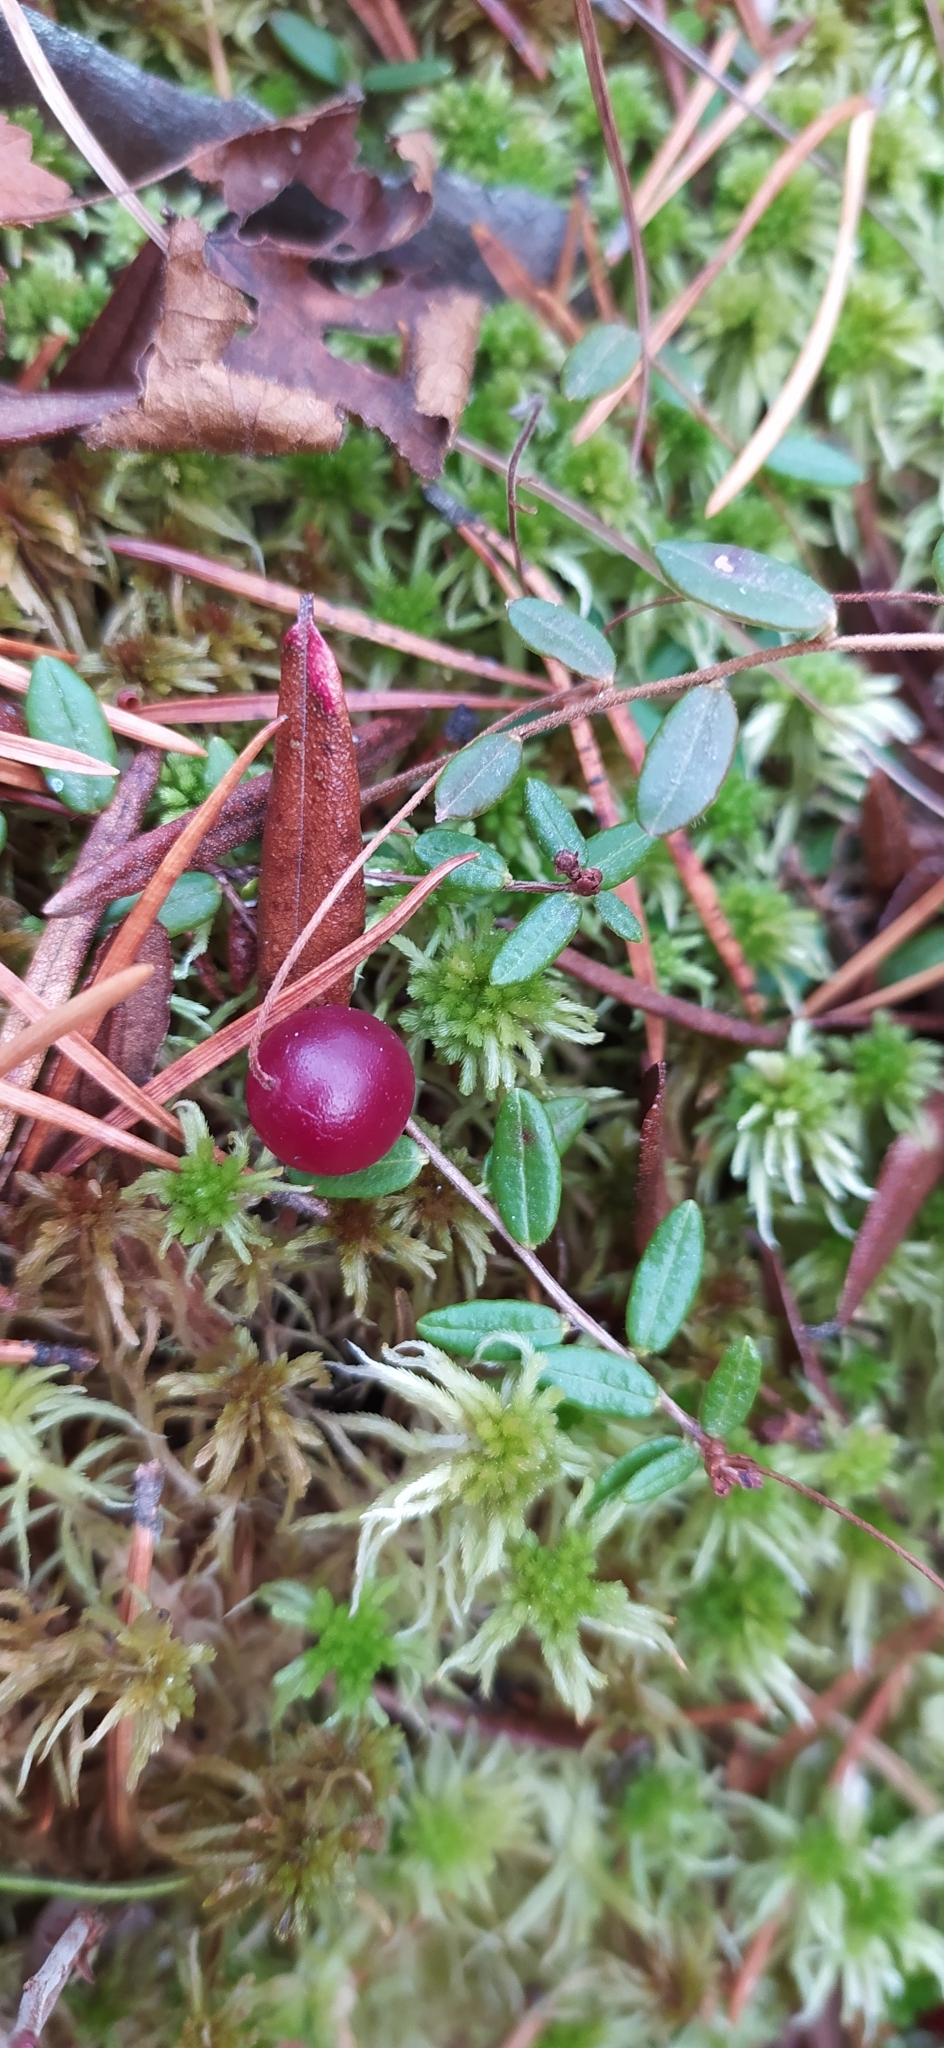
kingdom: Plantae
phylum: Tracheophyta
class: Magnoliopsida
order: Ericales
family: Ericaceae
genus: Vaccinium
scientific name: Vaccinium oxycoccos
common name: Cranberry
